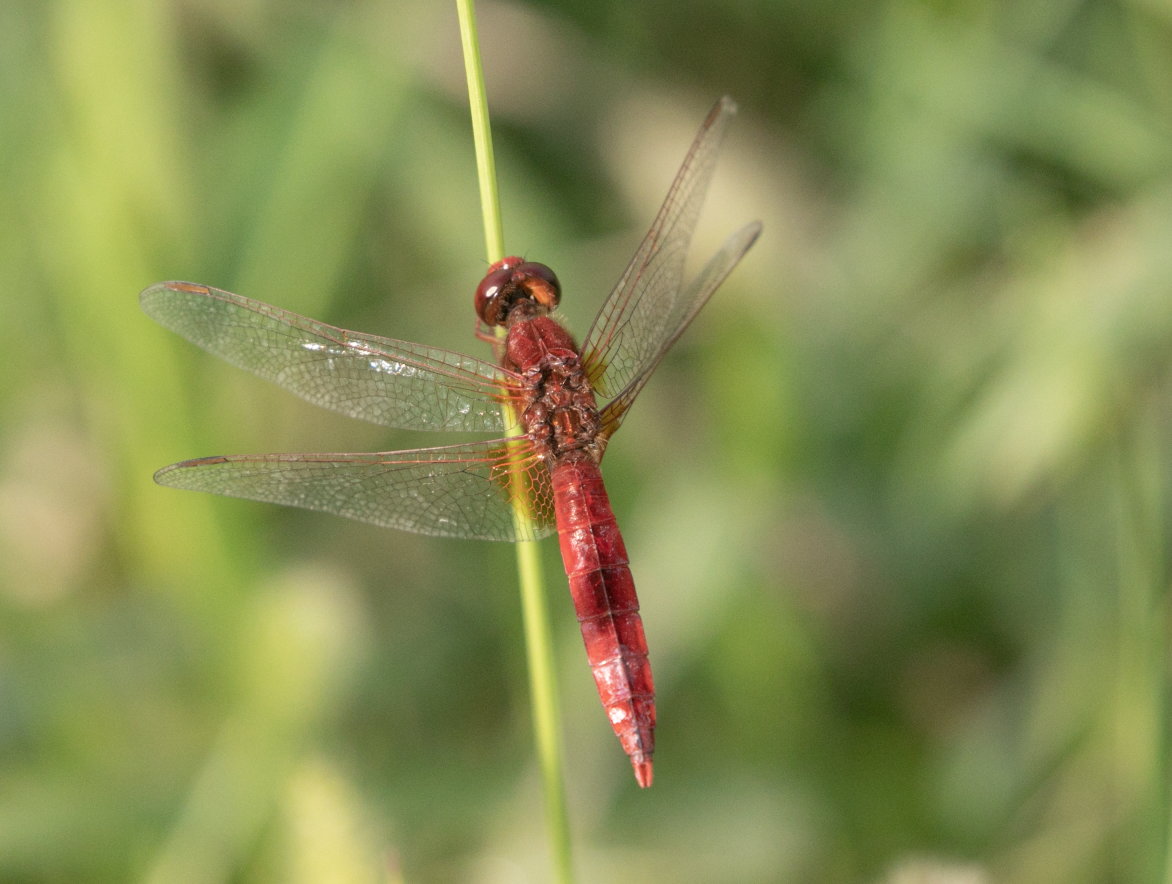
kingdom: Animalia
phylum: Arthropoda
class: Insecta
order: Odonata
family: Libellulidae
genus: Crocothemis
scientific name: Crocothemis erythraea
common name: Scarlet dragonfly
